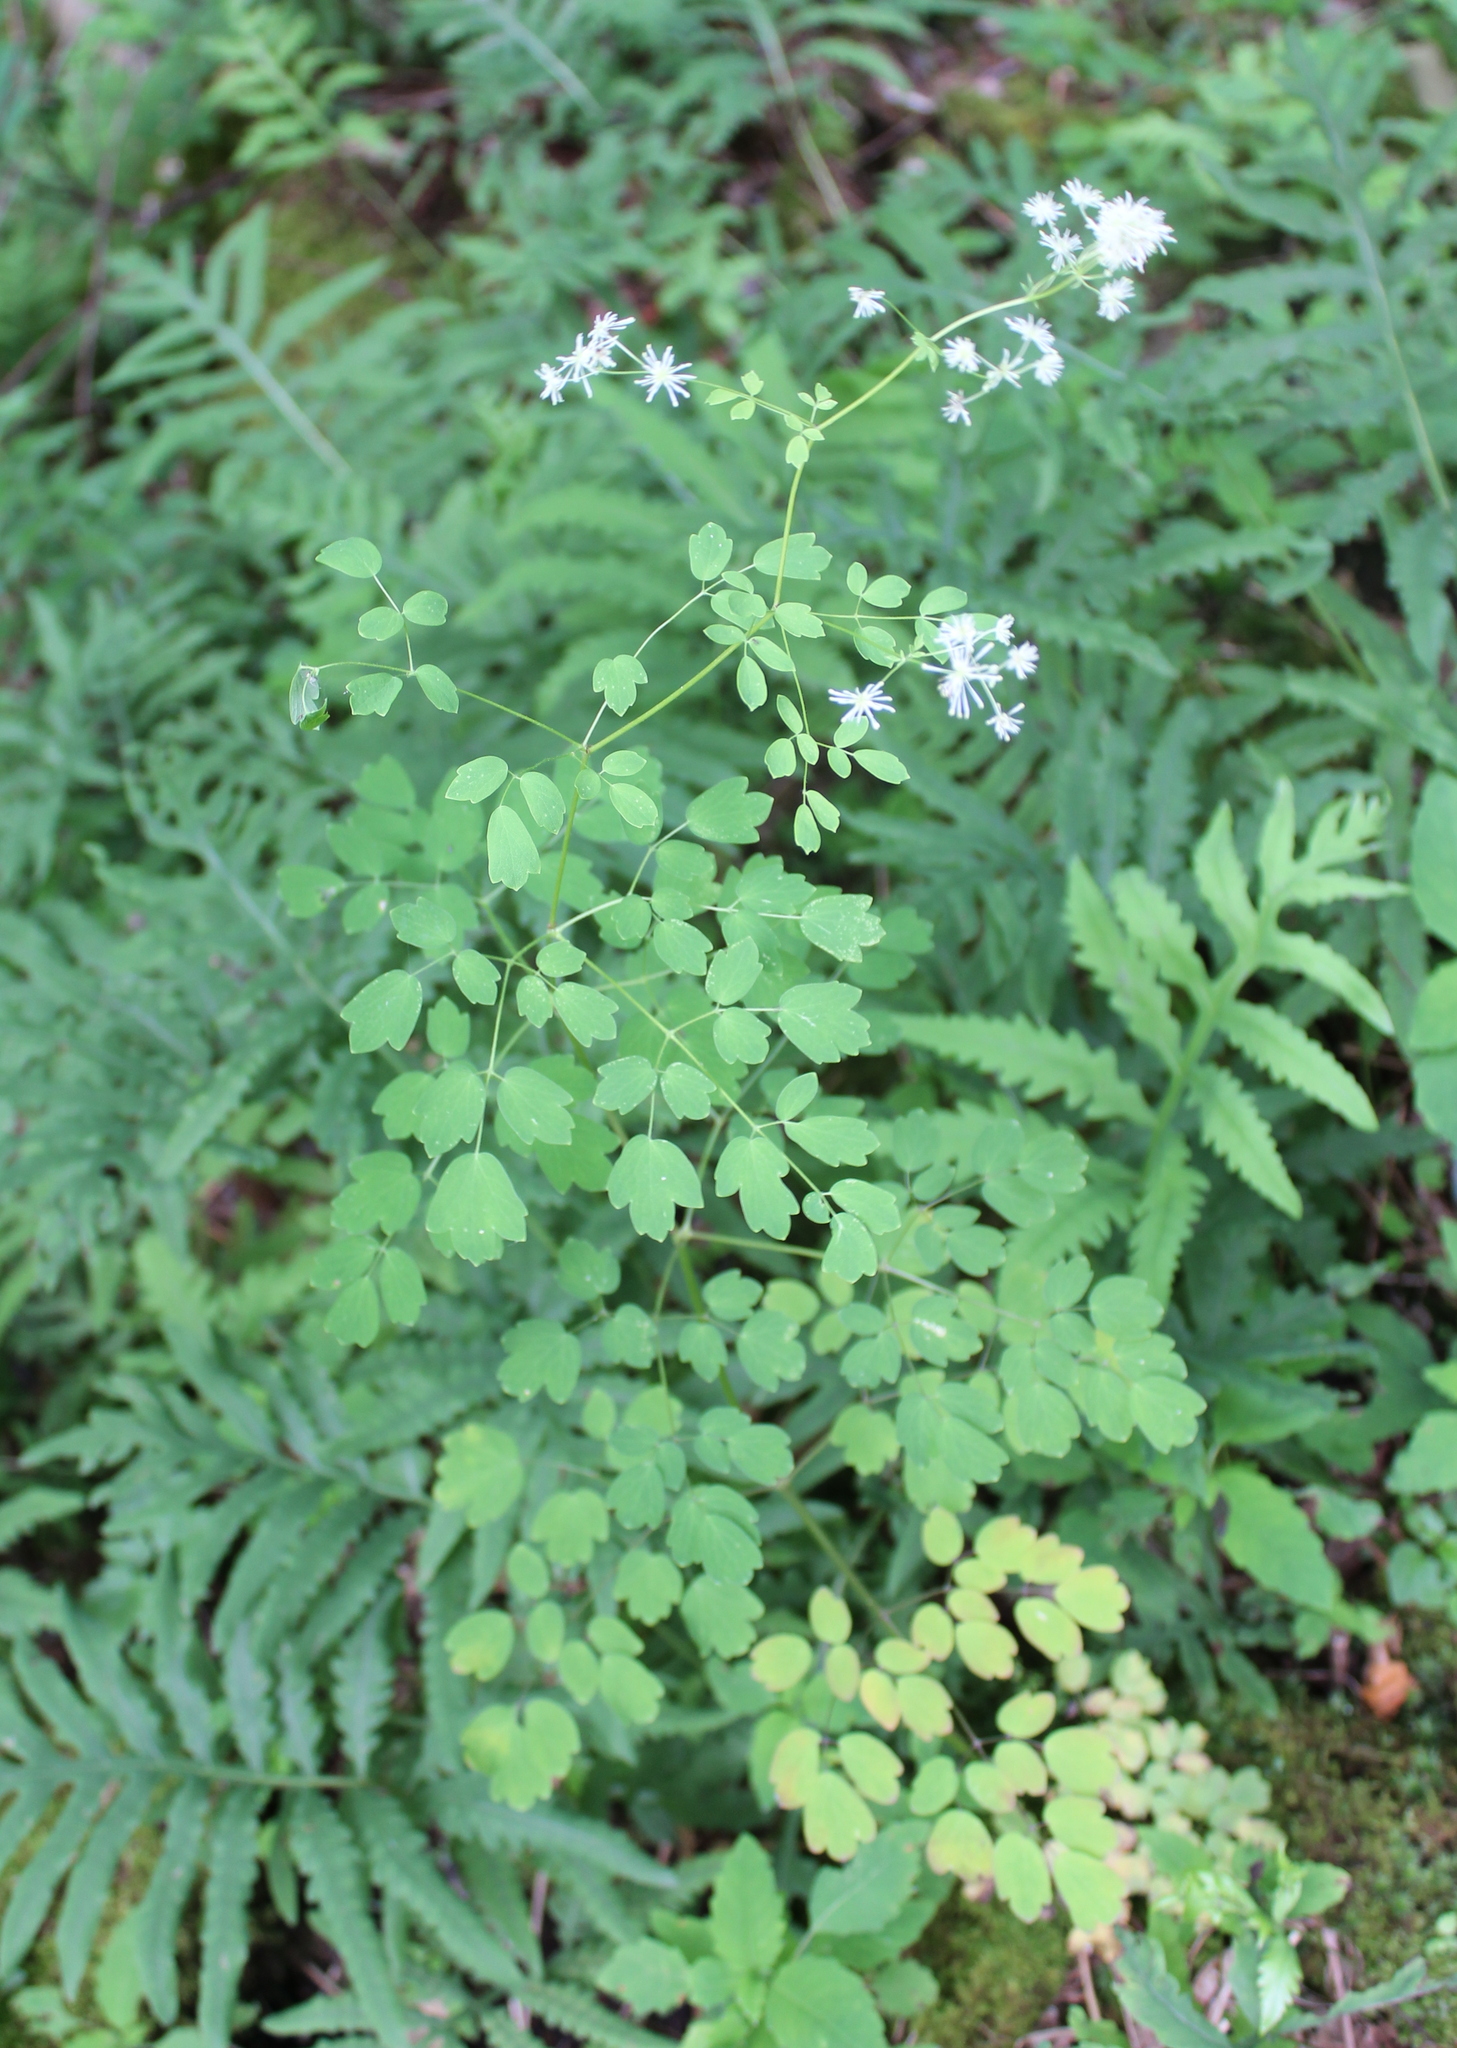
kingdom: Plantae
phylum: Tracheophyta
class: Magnoliopsida
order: Ranunculales
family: Ranunculaceae
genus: Thalictrum
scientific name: Thalictrum pubescens
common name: King-of-the-meadow
